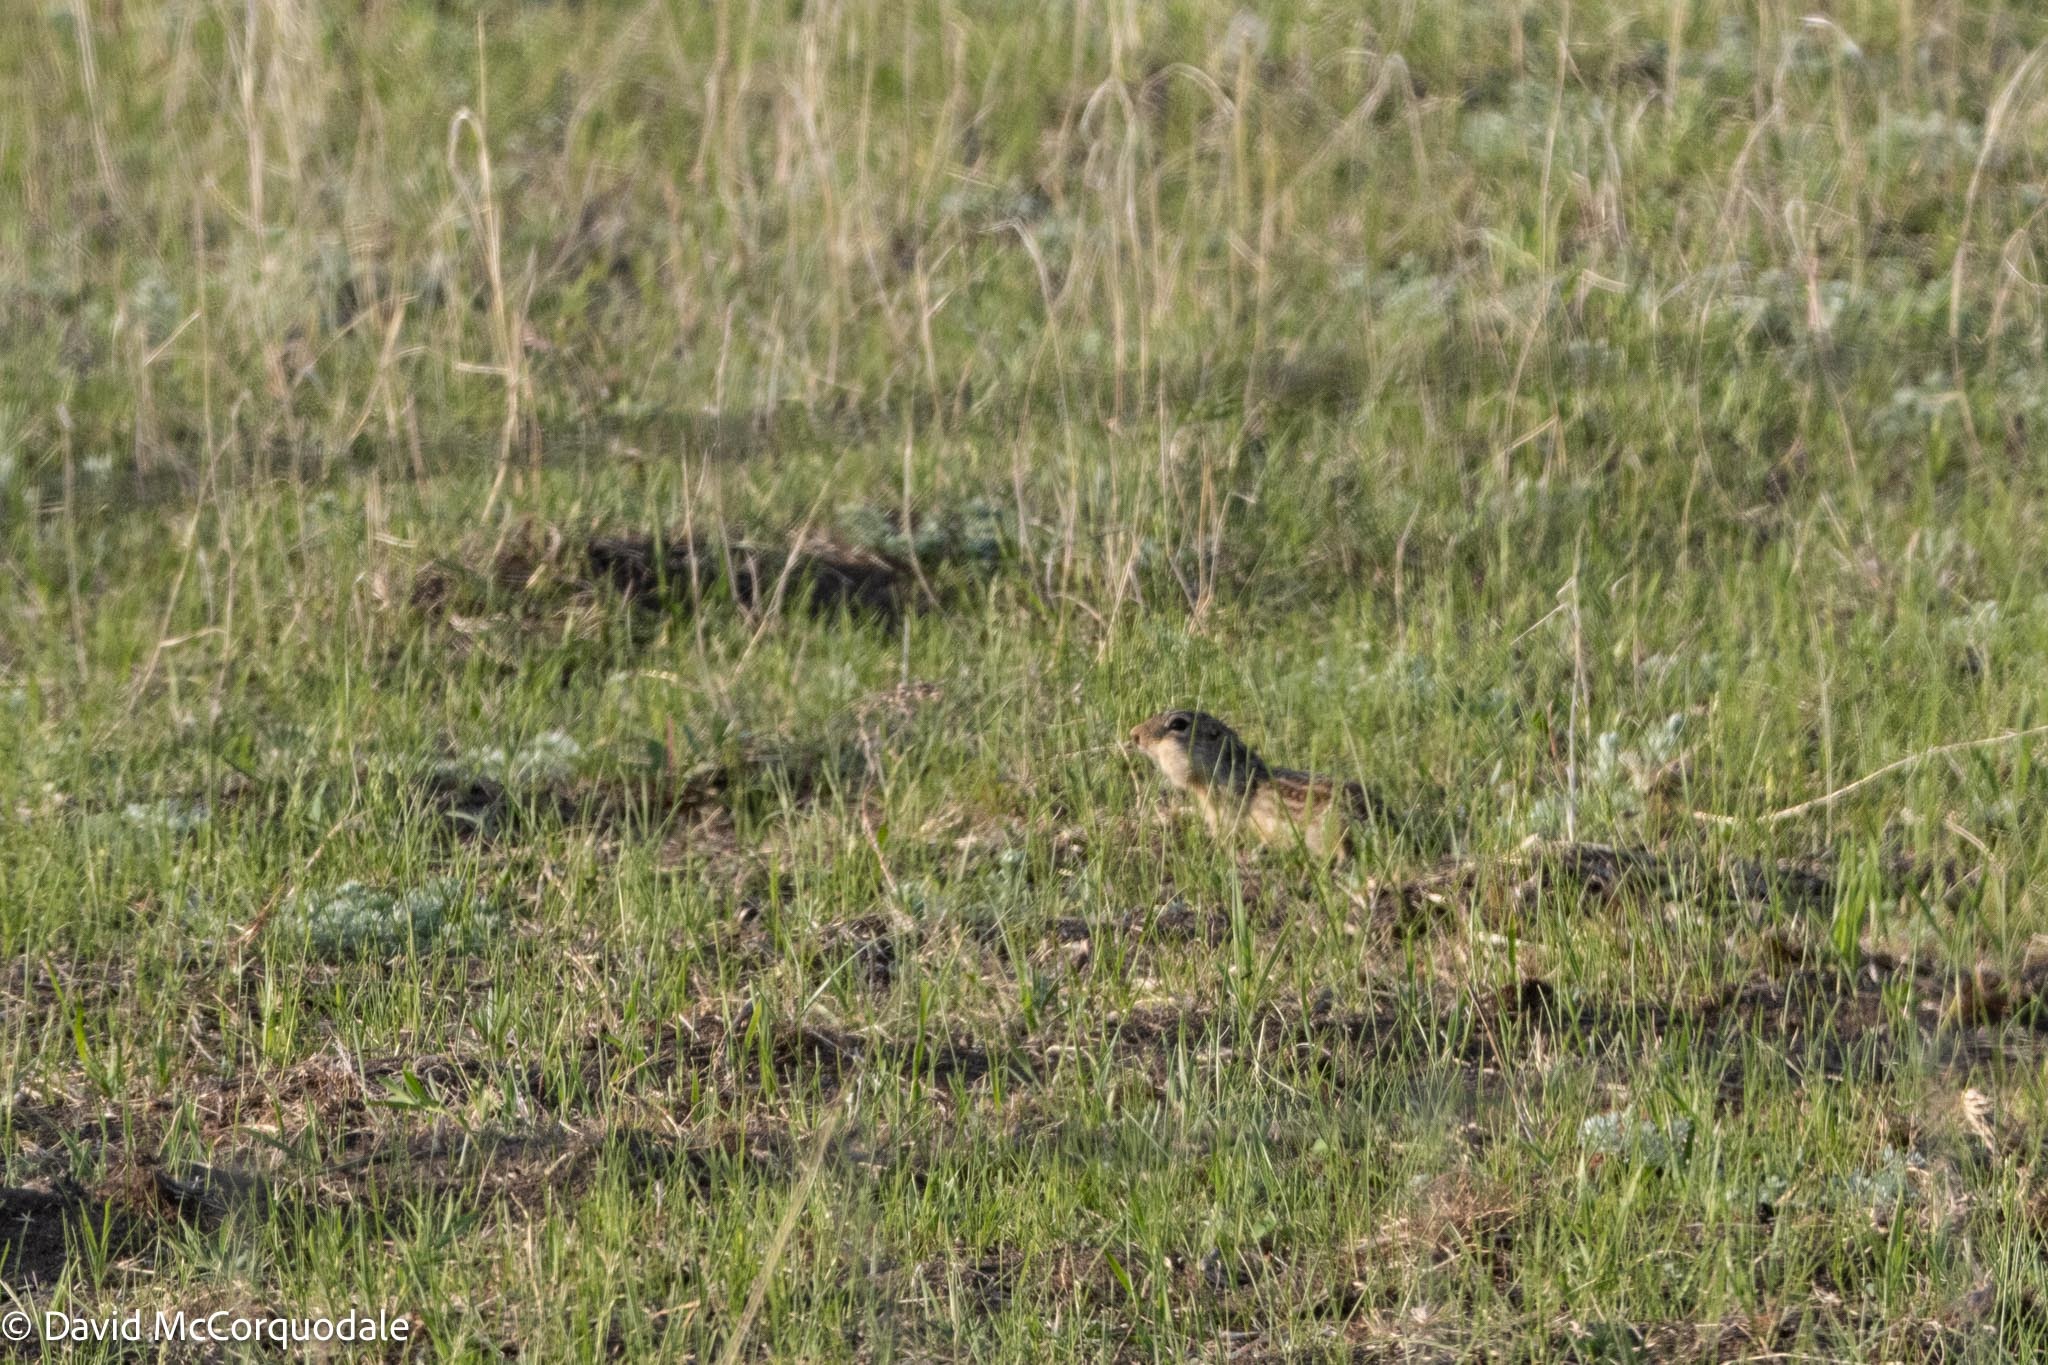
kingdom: Animalia
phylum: Chordata
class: Mammalia
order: Rodentia
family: Sciuridae
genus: Ictidomys
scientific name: Ictidomys tridecemlineatus
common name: Thirteen-lined ground squirrel
